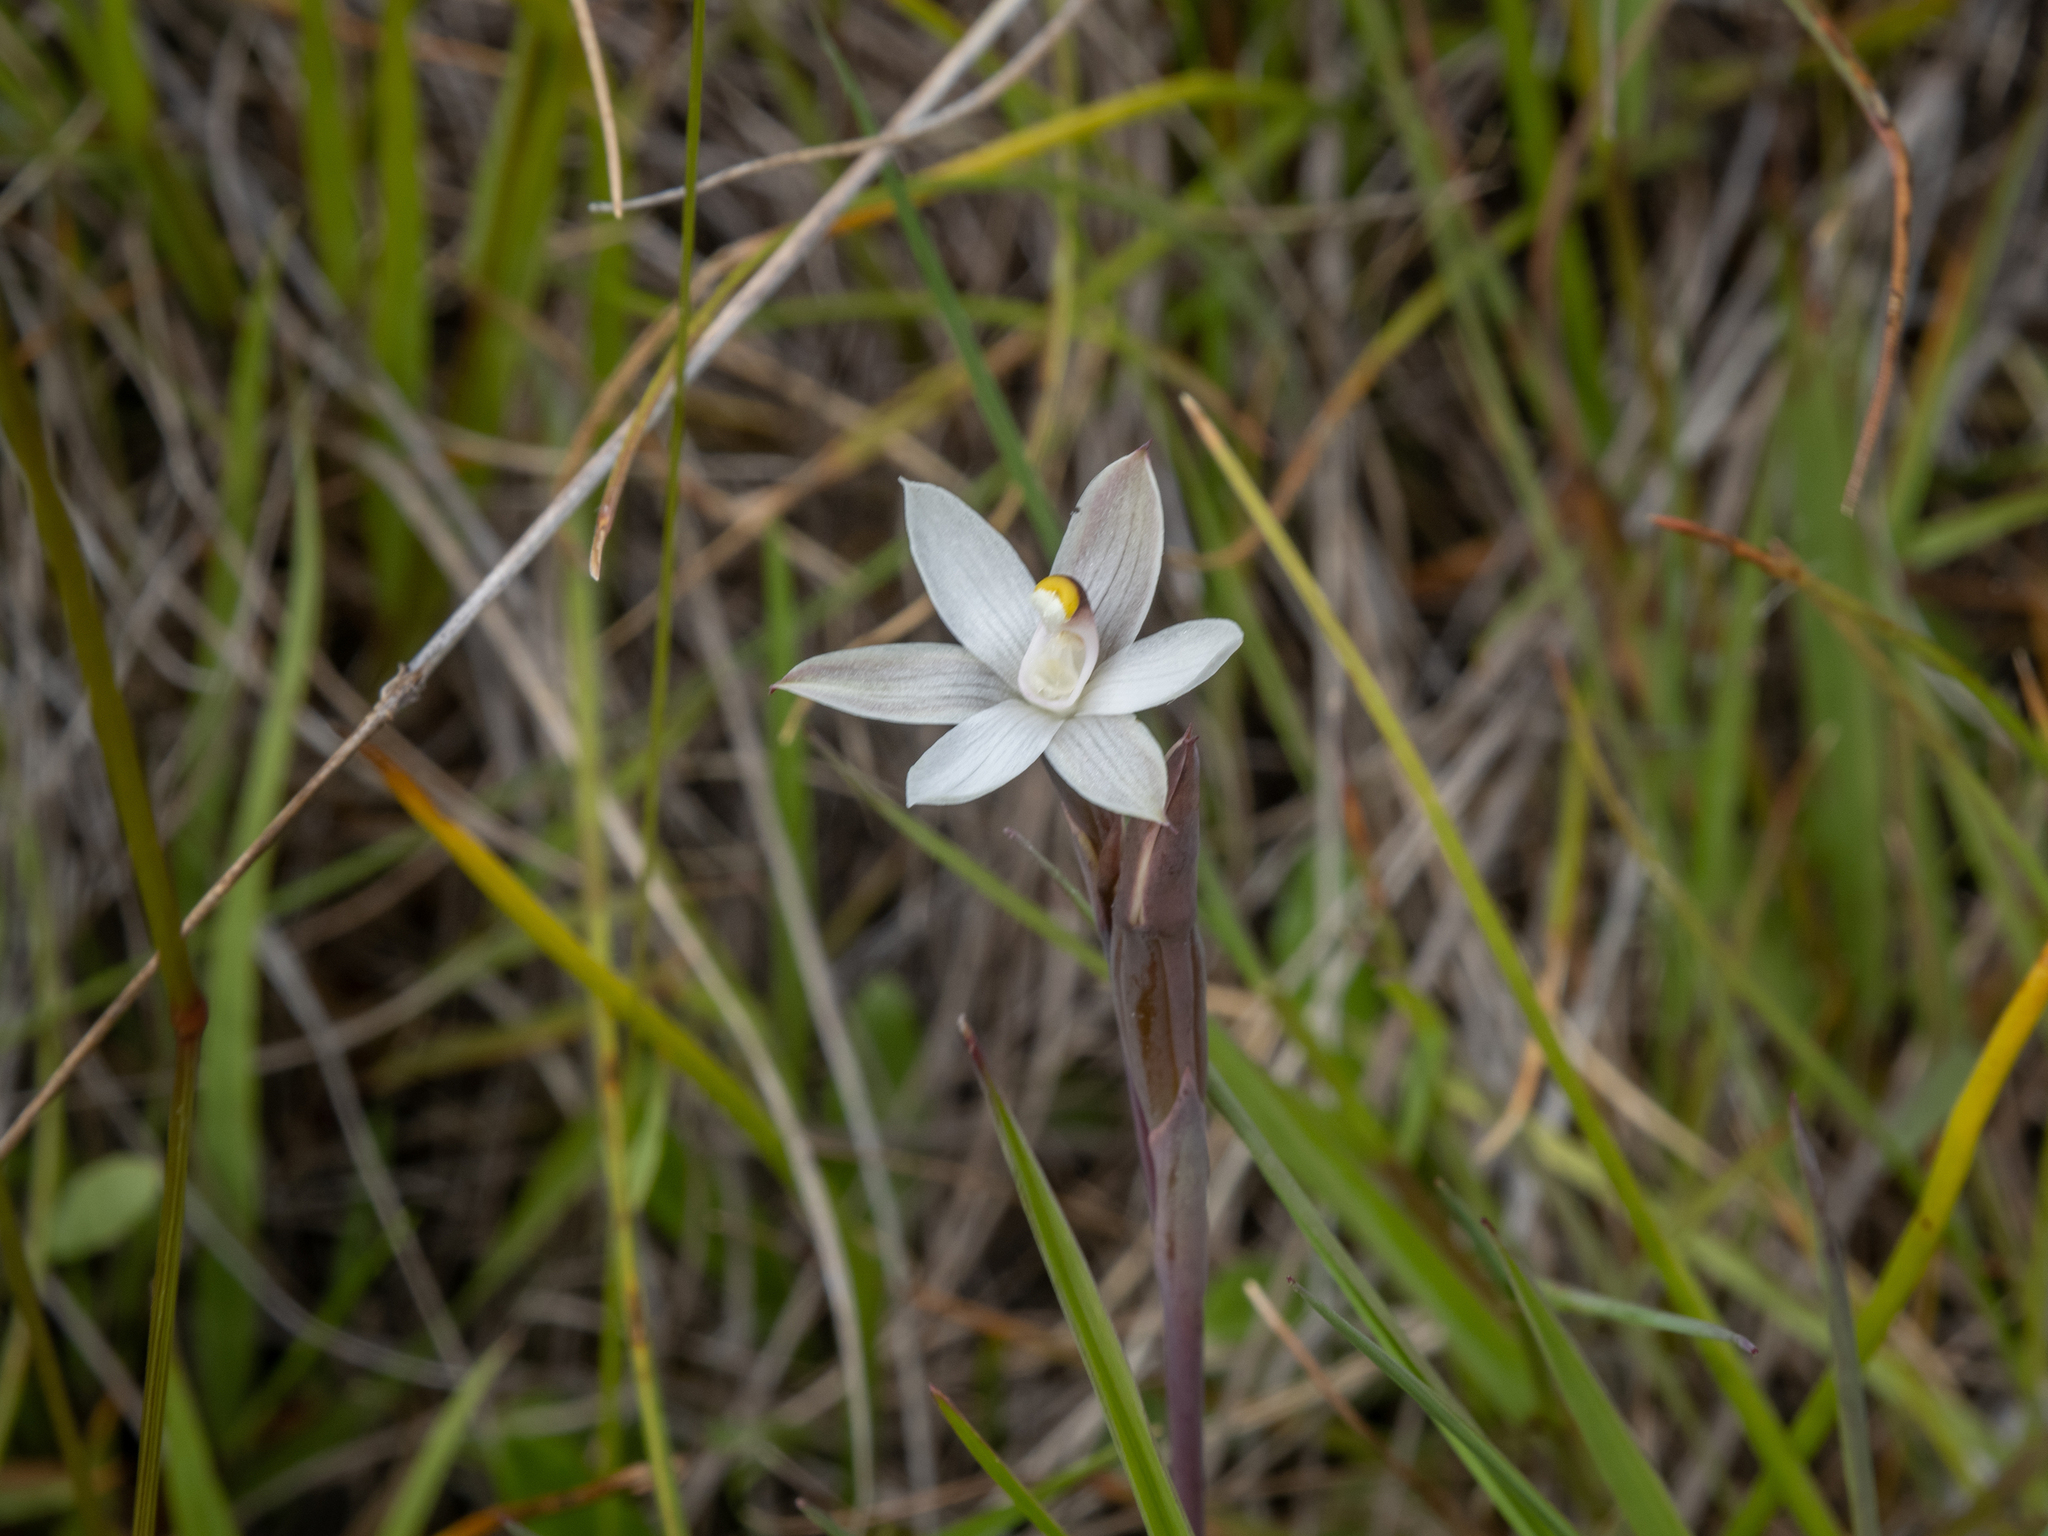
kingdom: Plantae
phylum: Tracheophyta
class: Liliopsida
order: Asparagales
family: Orchidaceae
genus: Thelymitra
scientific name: Thelymitra longifolia
